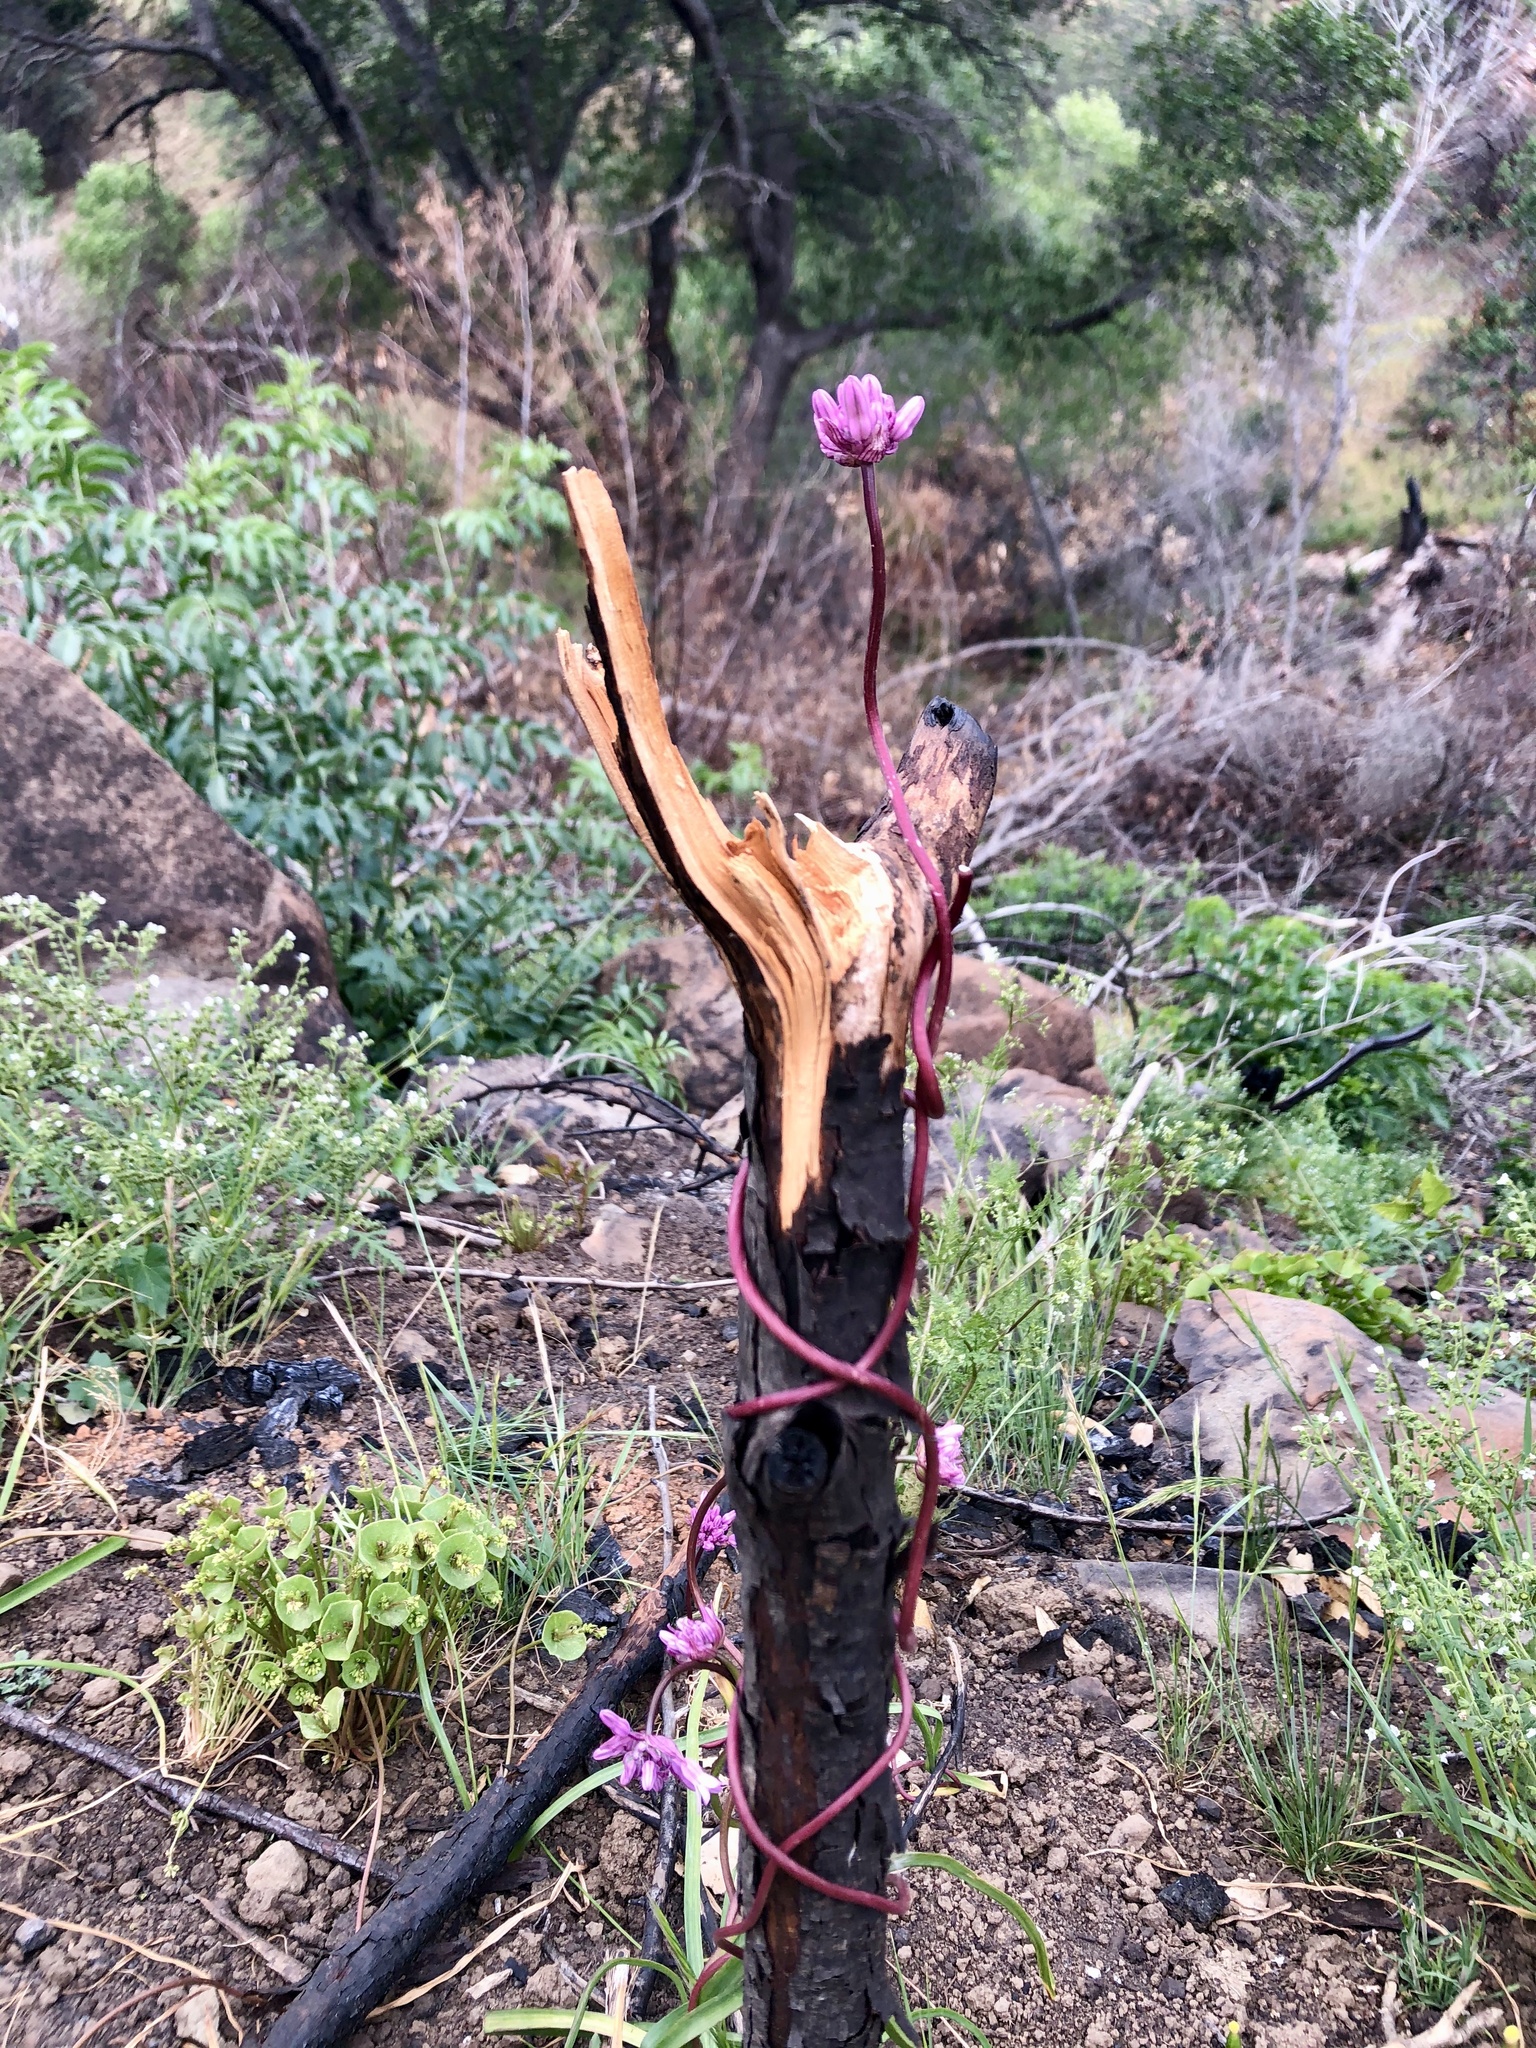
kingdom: Plantae
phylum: Tracheophyta
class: Liliopsida
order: Asparagales
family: Asparagaceae
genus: Dichelostemma
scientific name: Dichelostemma volubile
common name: Trining brodiaea
